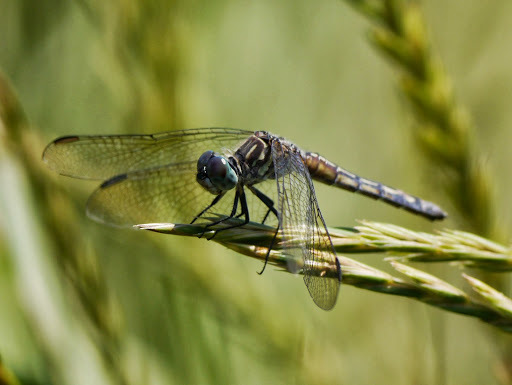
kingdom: Animalia
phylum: Arthropoda
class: Insecta
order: Odonata
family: Libellulidae
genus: Pachydiplax
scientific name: Pachydiplax longipennis
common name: Blue dasher
